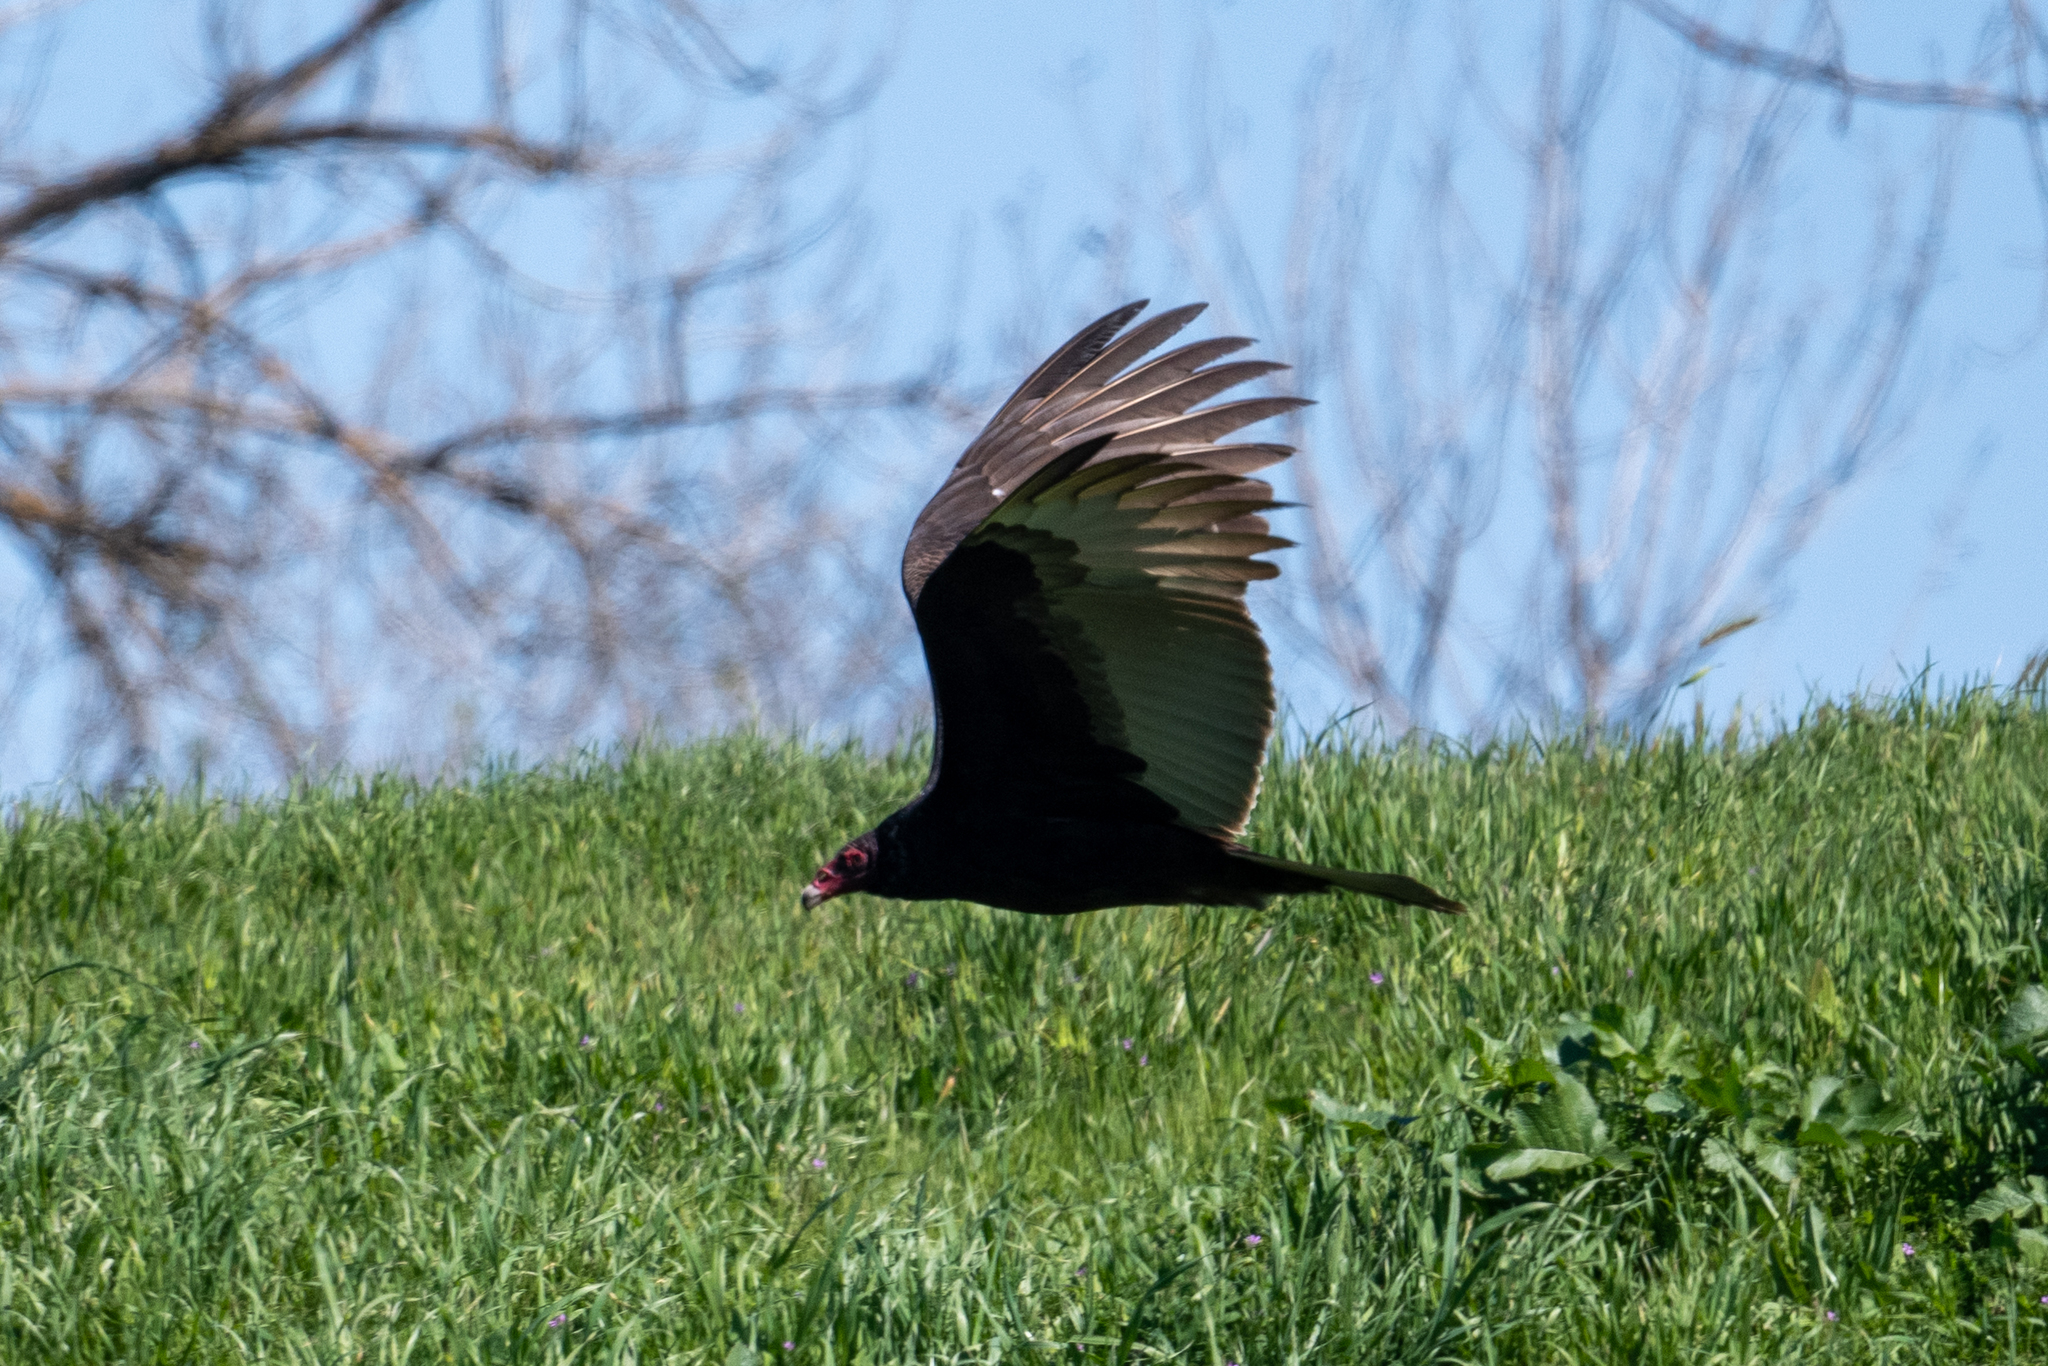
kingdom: Animalia
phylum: Chordata
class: Aves
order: Accipitriformes
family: Cathartidae
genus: Cathartes
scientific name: Cathartes aura
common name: Turkey vulture
